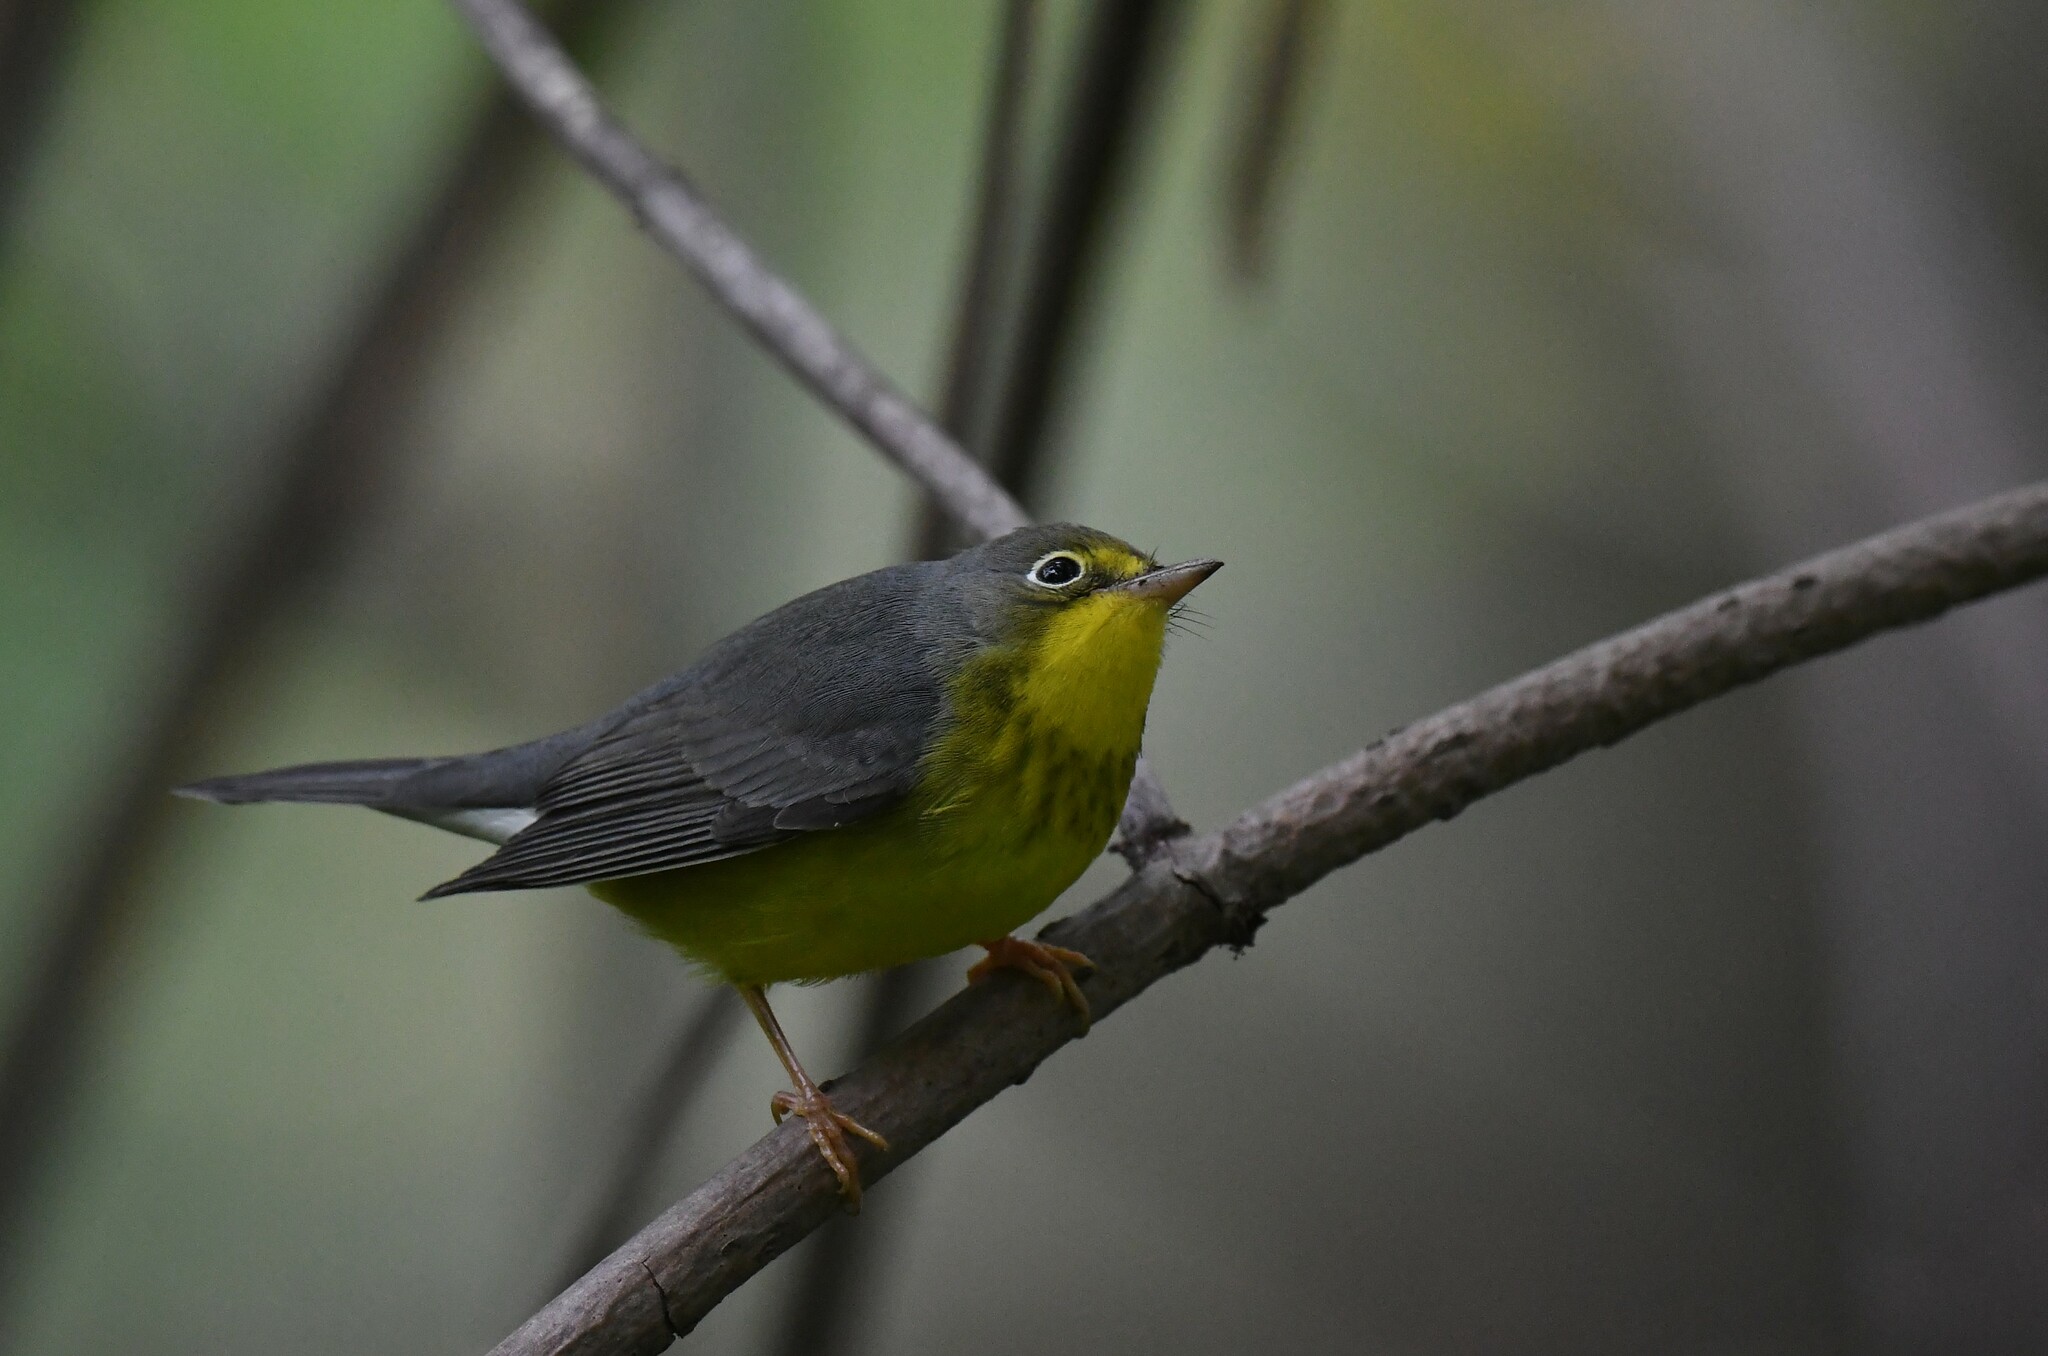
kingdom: Animalia
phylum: Chordata
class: Aves
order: Passeriformes
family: Parulidae
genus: Cardellina
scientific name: Cardellina canadensis
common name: Canada warbler
